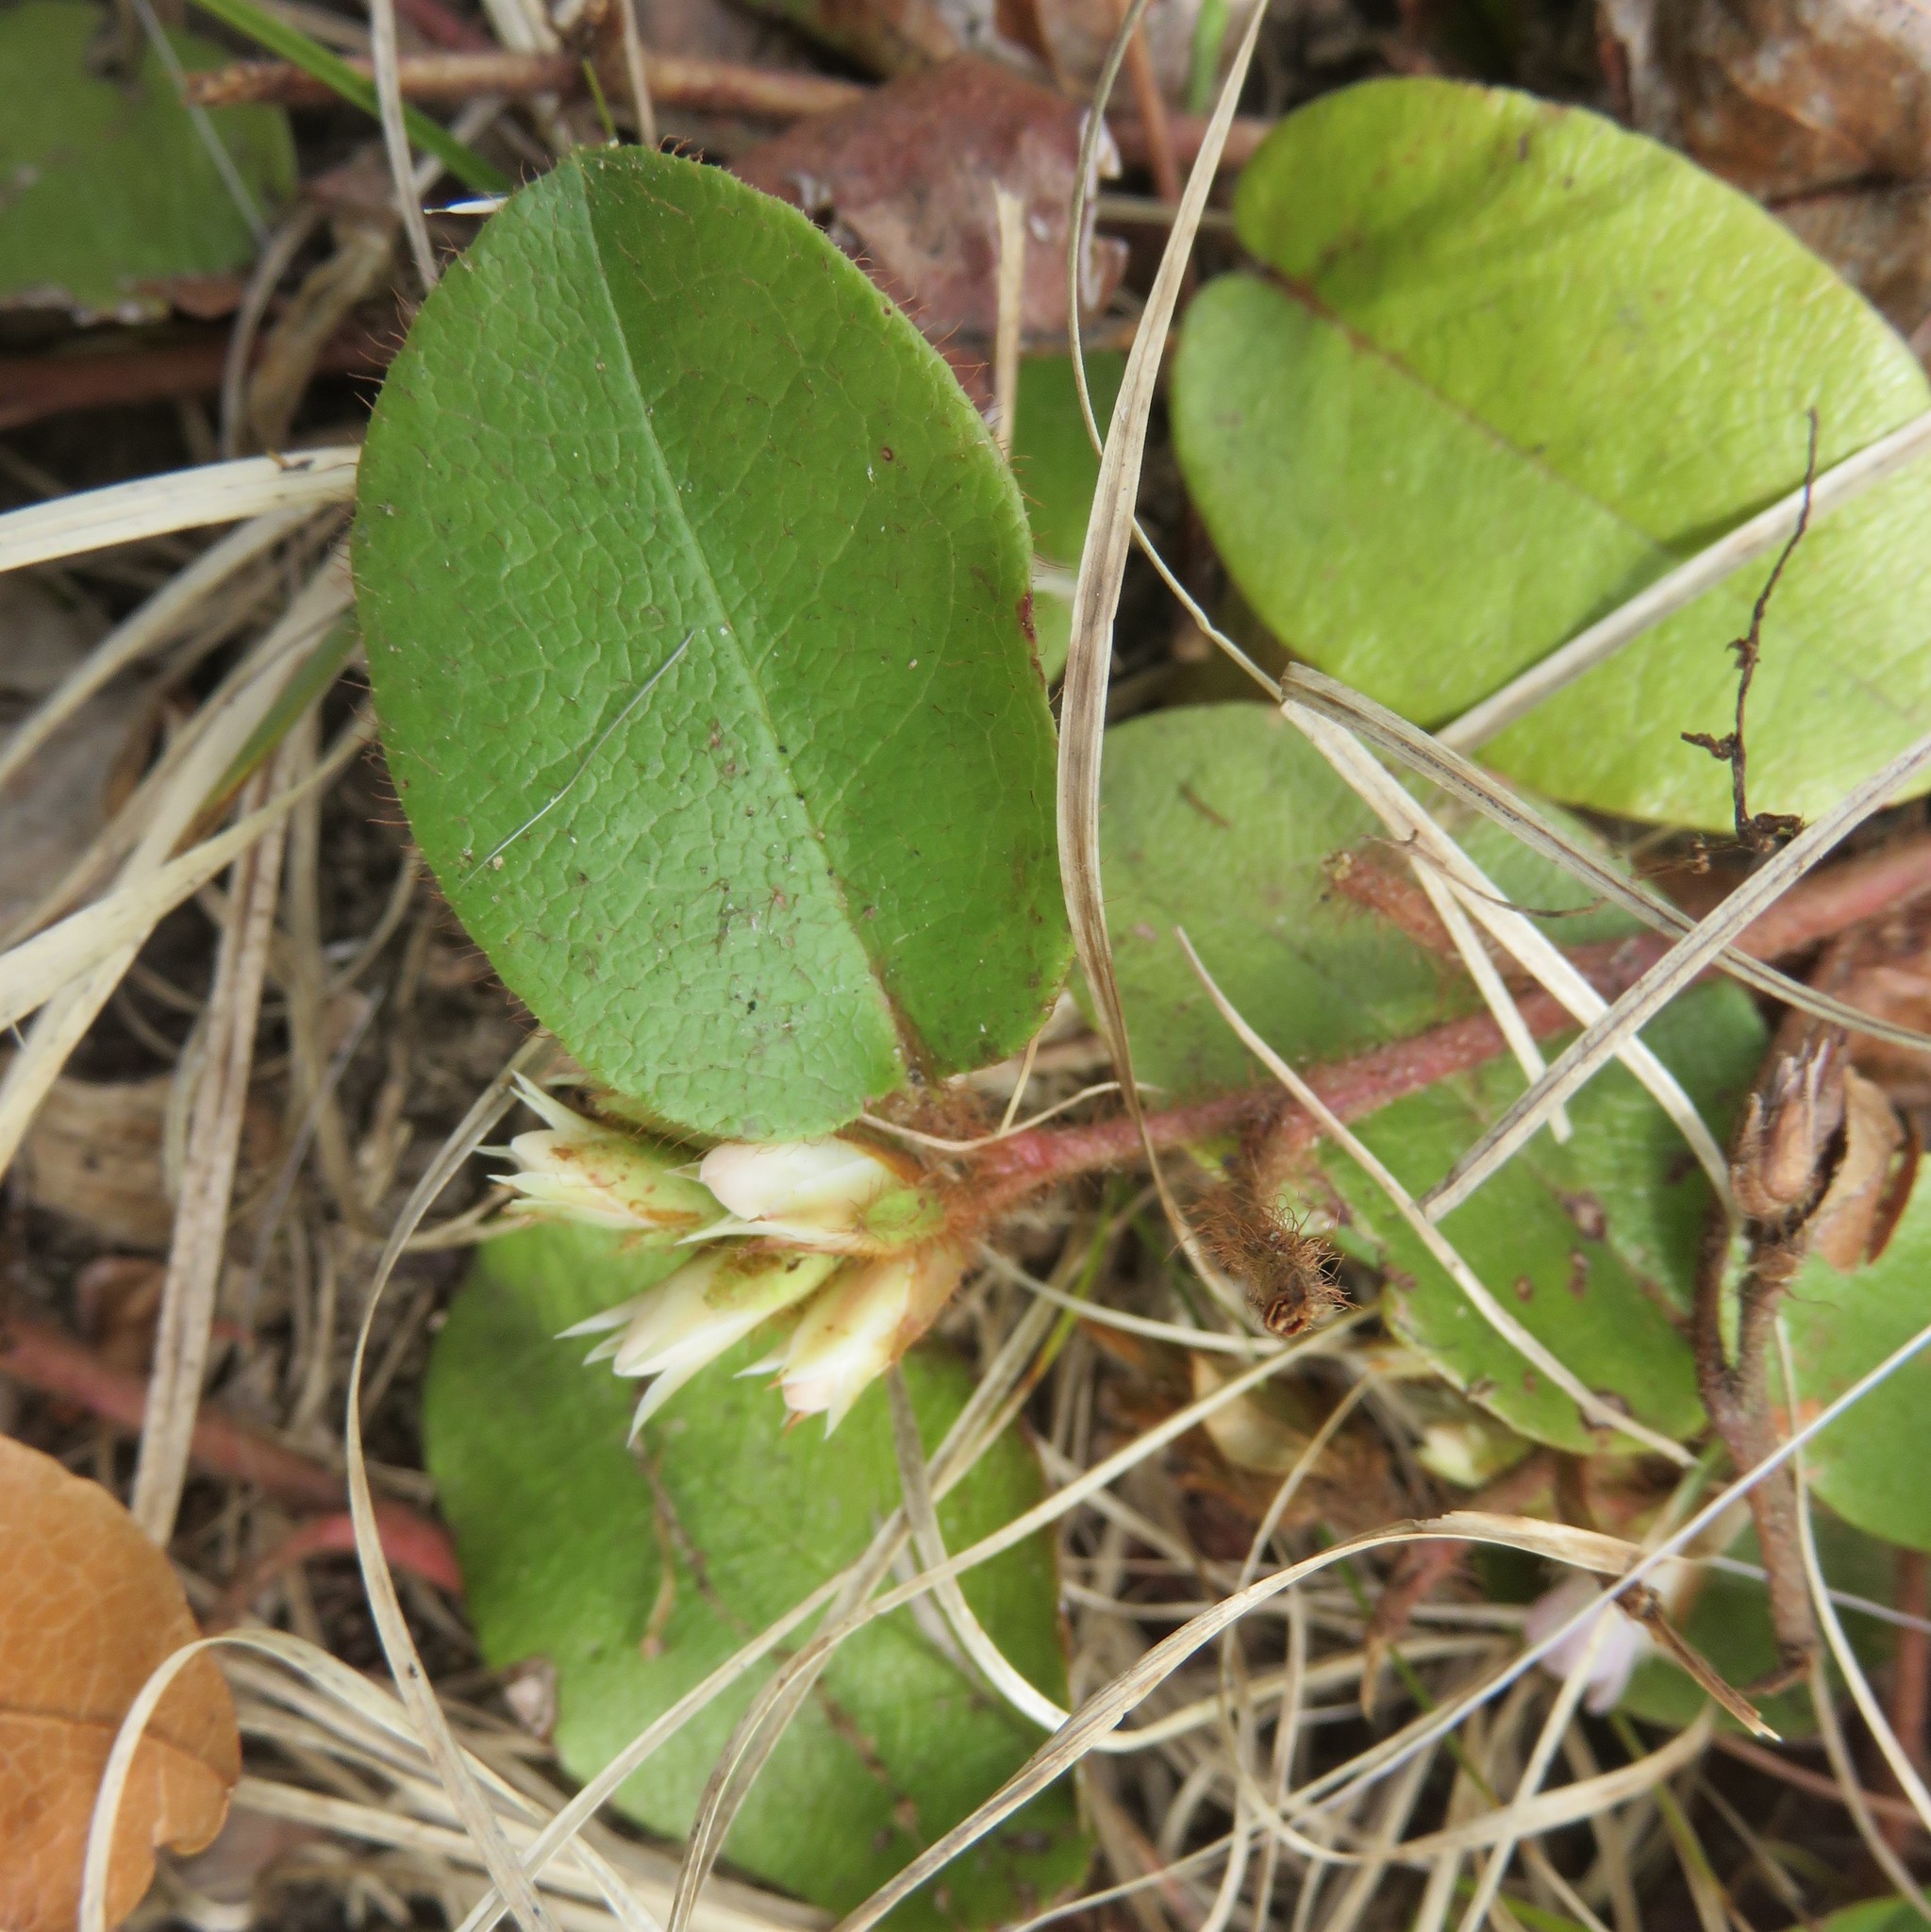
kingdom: Plantae
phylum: Tracheophyta
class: Magnoliopsida
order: Ericales
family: Ericaceae
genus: Epigaea
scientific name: Epigaea repens
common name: Gravelroot
